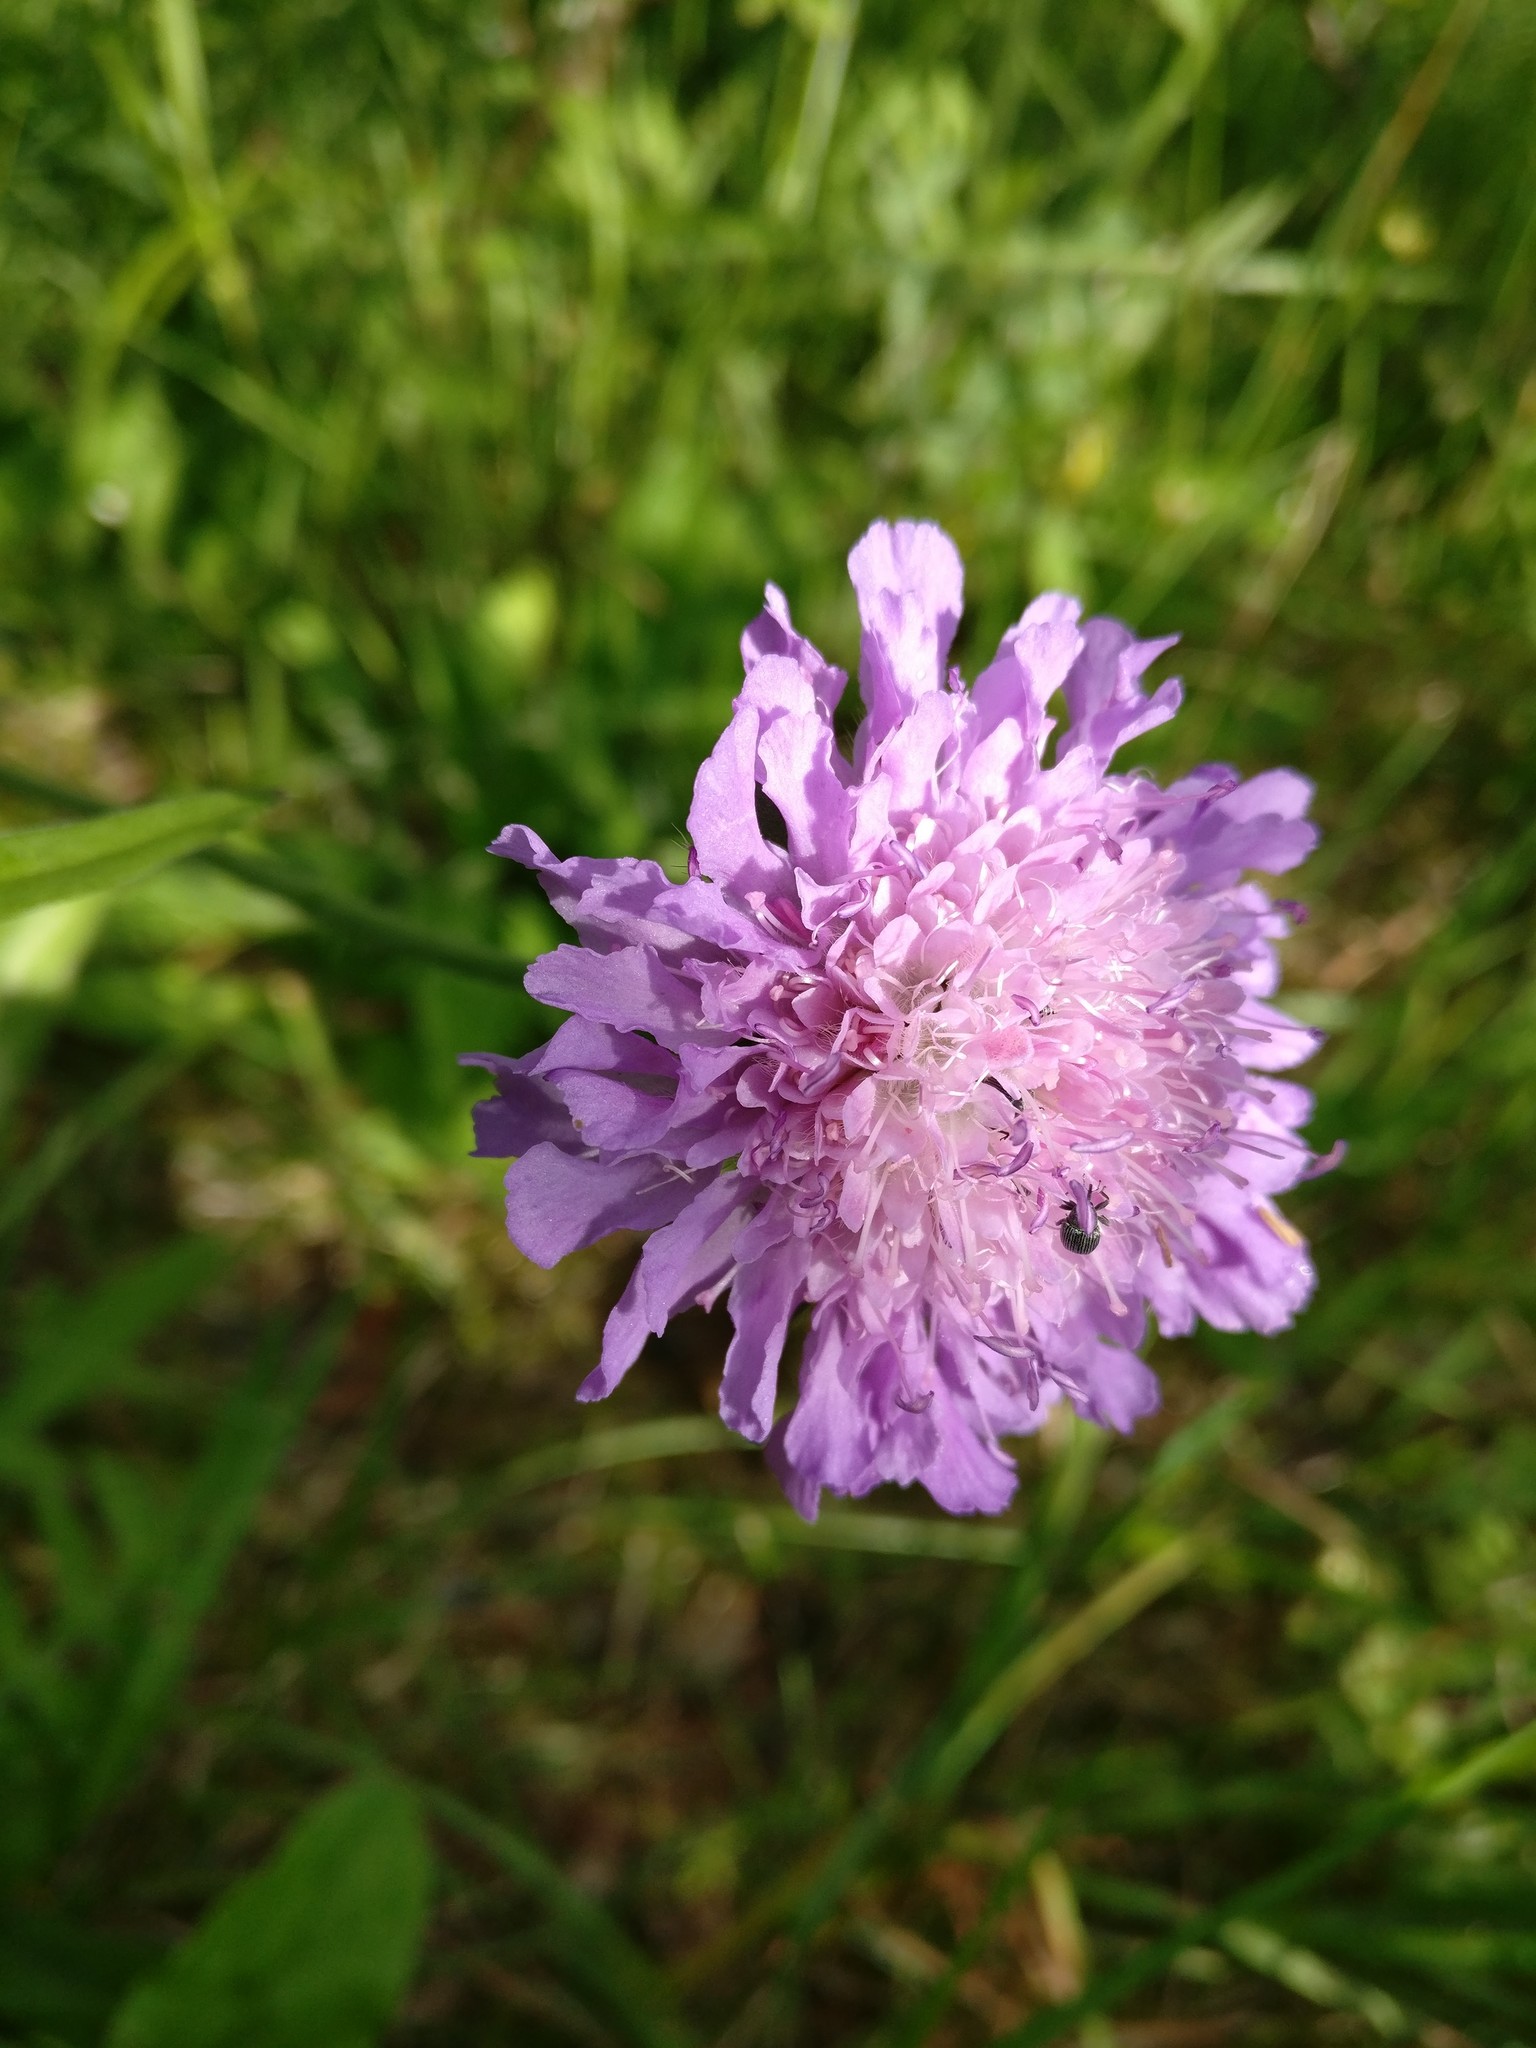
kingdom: Plantae
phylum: Tracheophyta
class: Magnoliopsida
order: Dipsacales
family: Caprifoliaceae
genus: Knautia
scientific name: Knautia arvensis
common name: Field scabiosa
